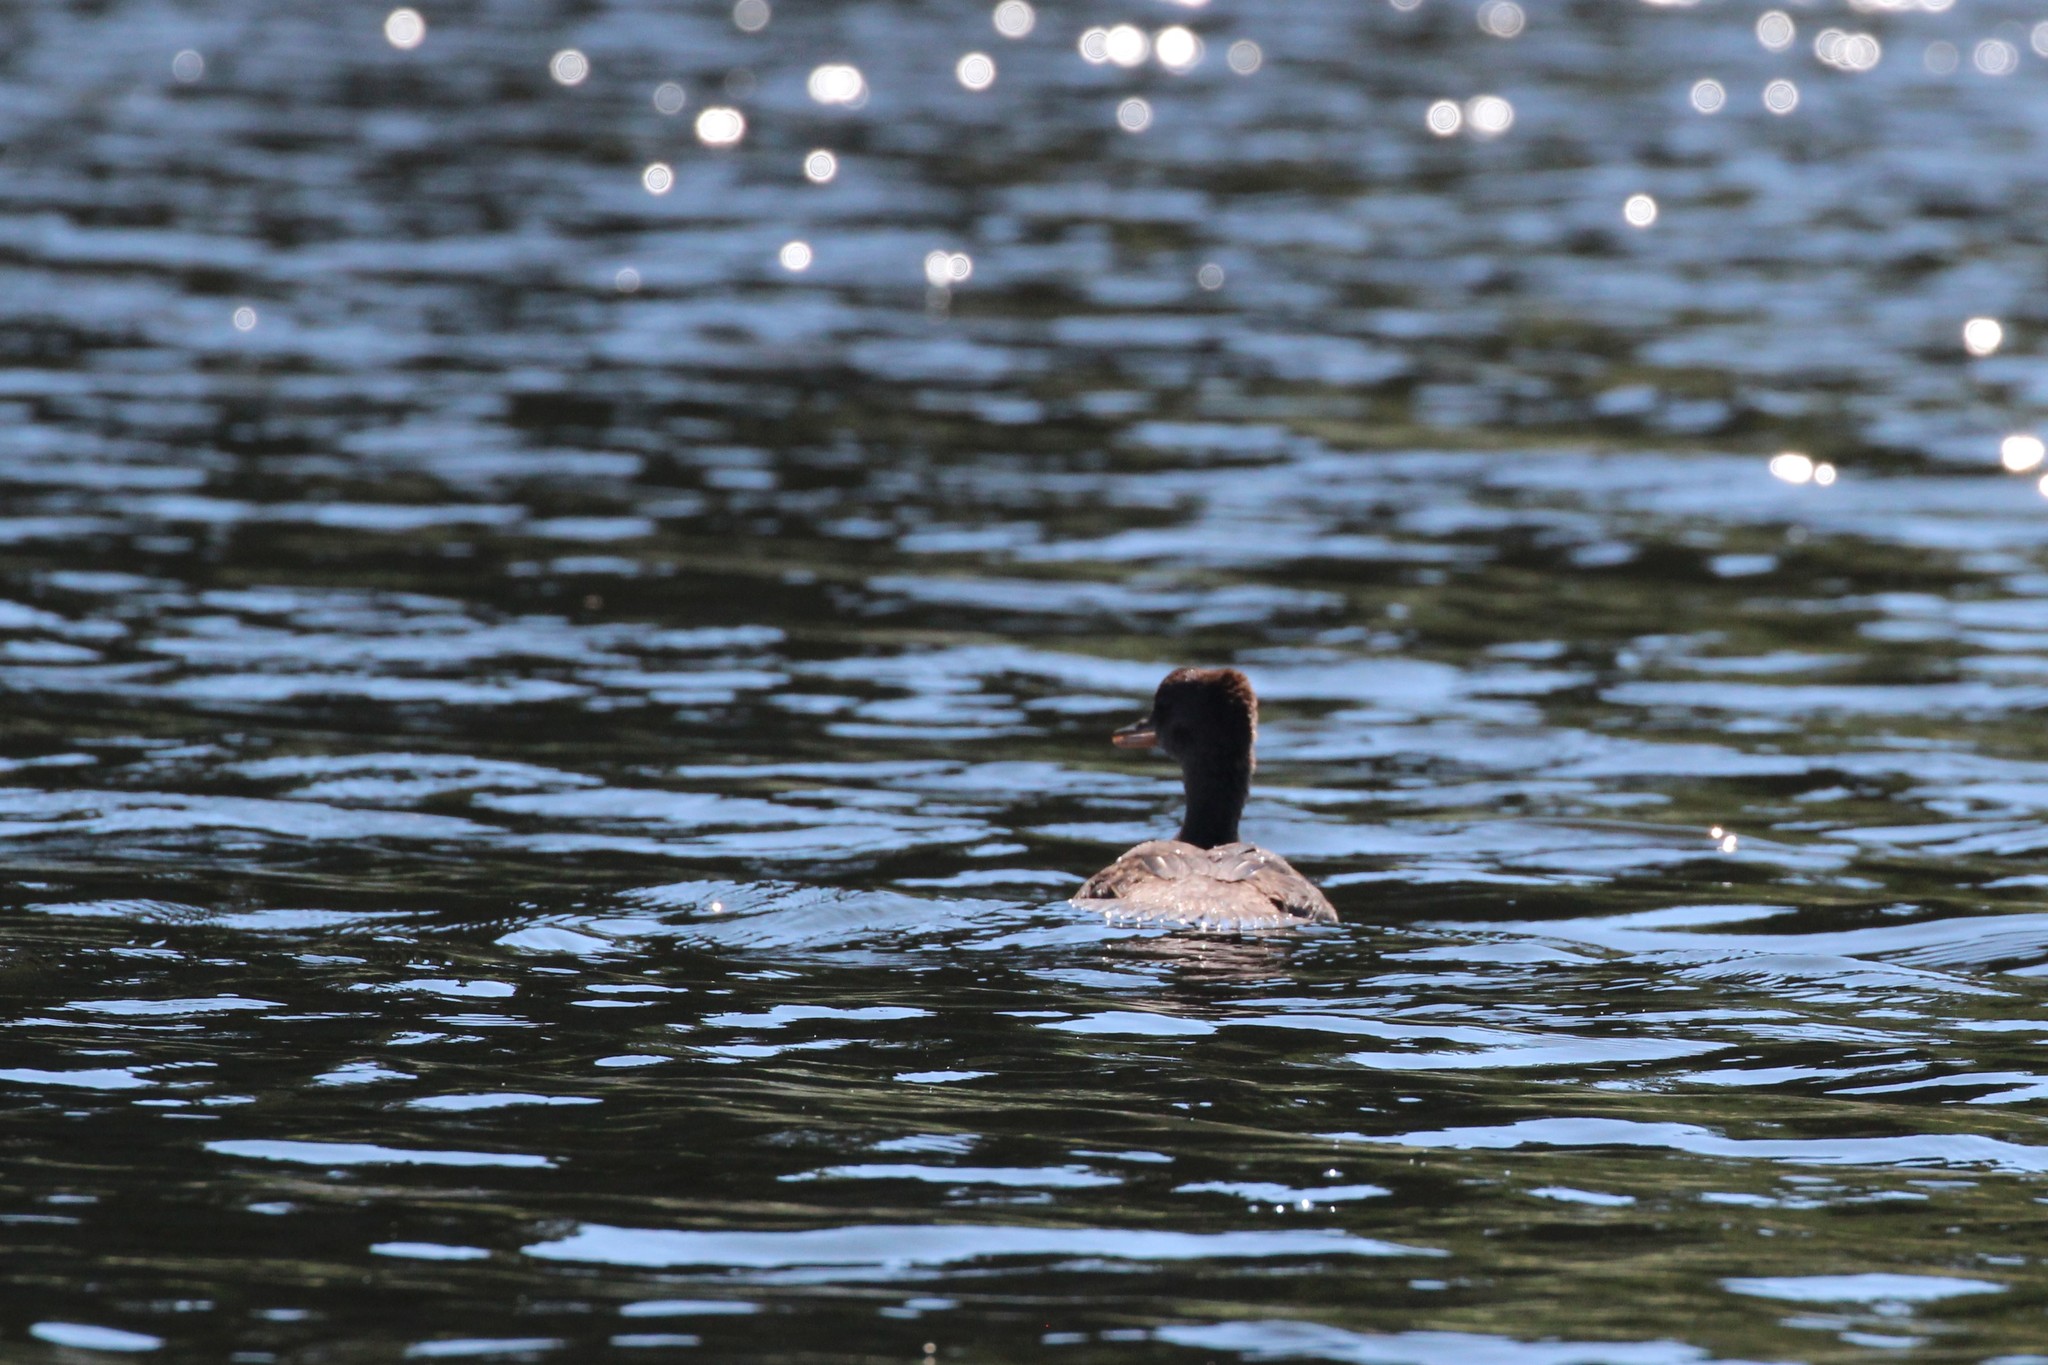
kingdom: Animalia
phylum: Chordata
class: Aves
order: Anseriformes
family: Anatidae
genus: Lophodytes
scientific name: Lophodytes cucullatus
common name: Hooded merganser
